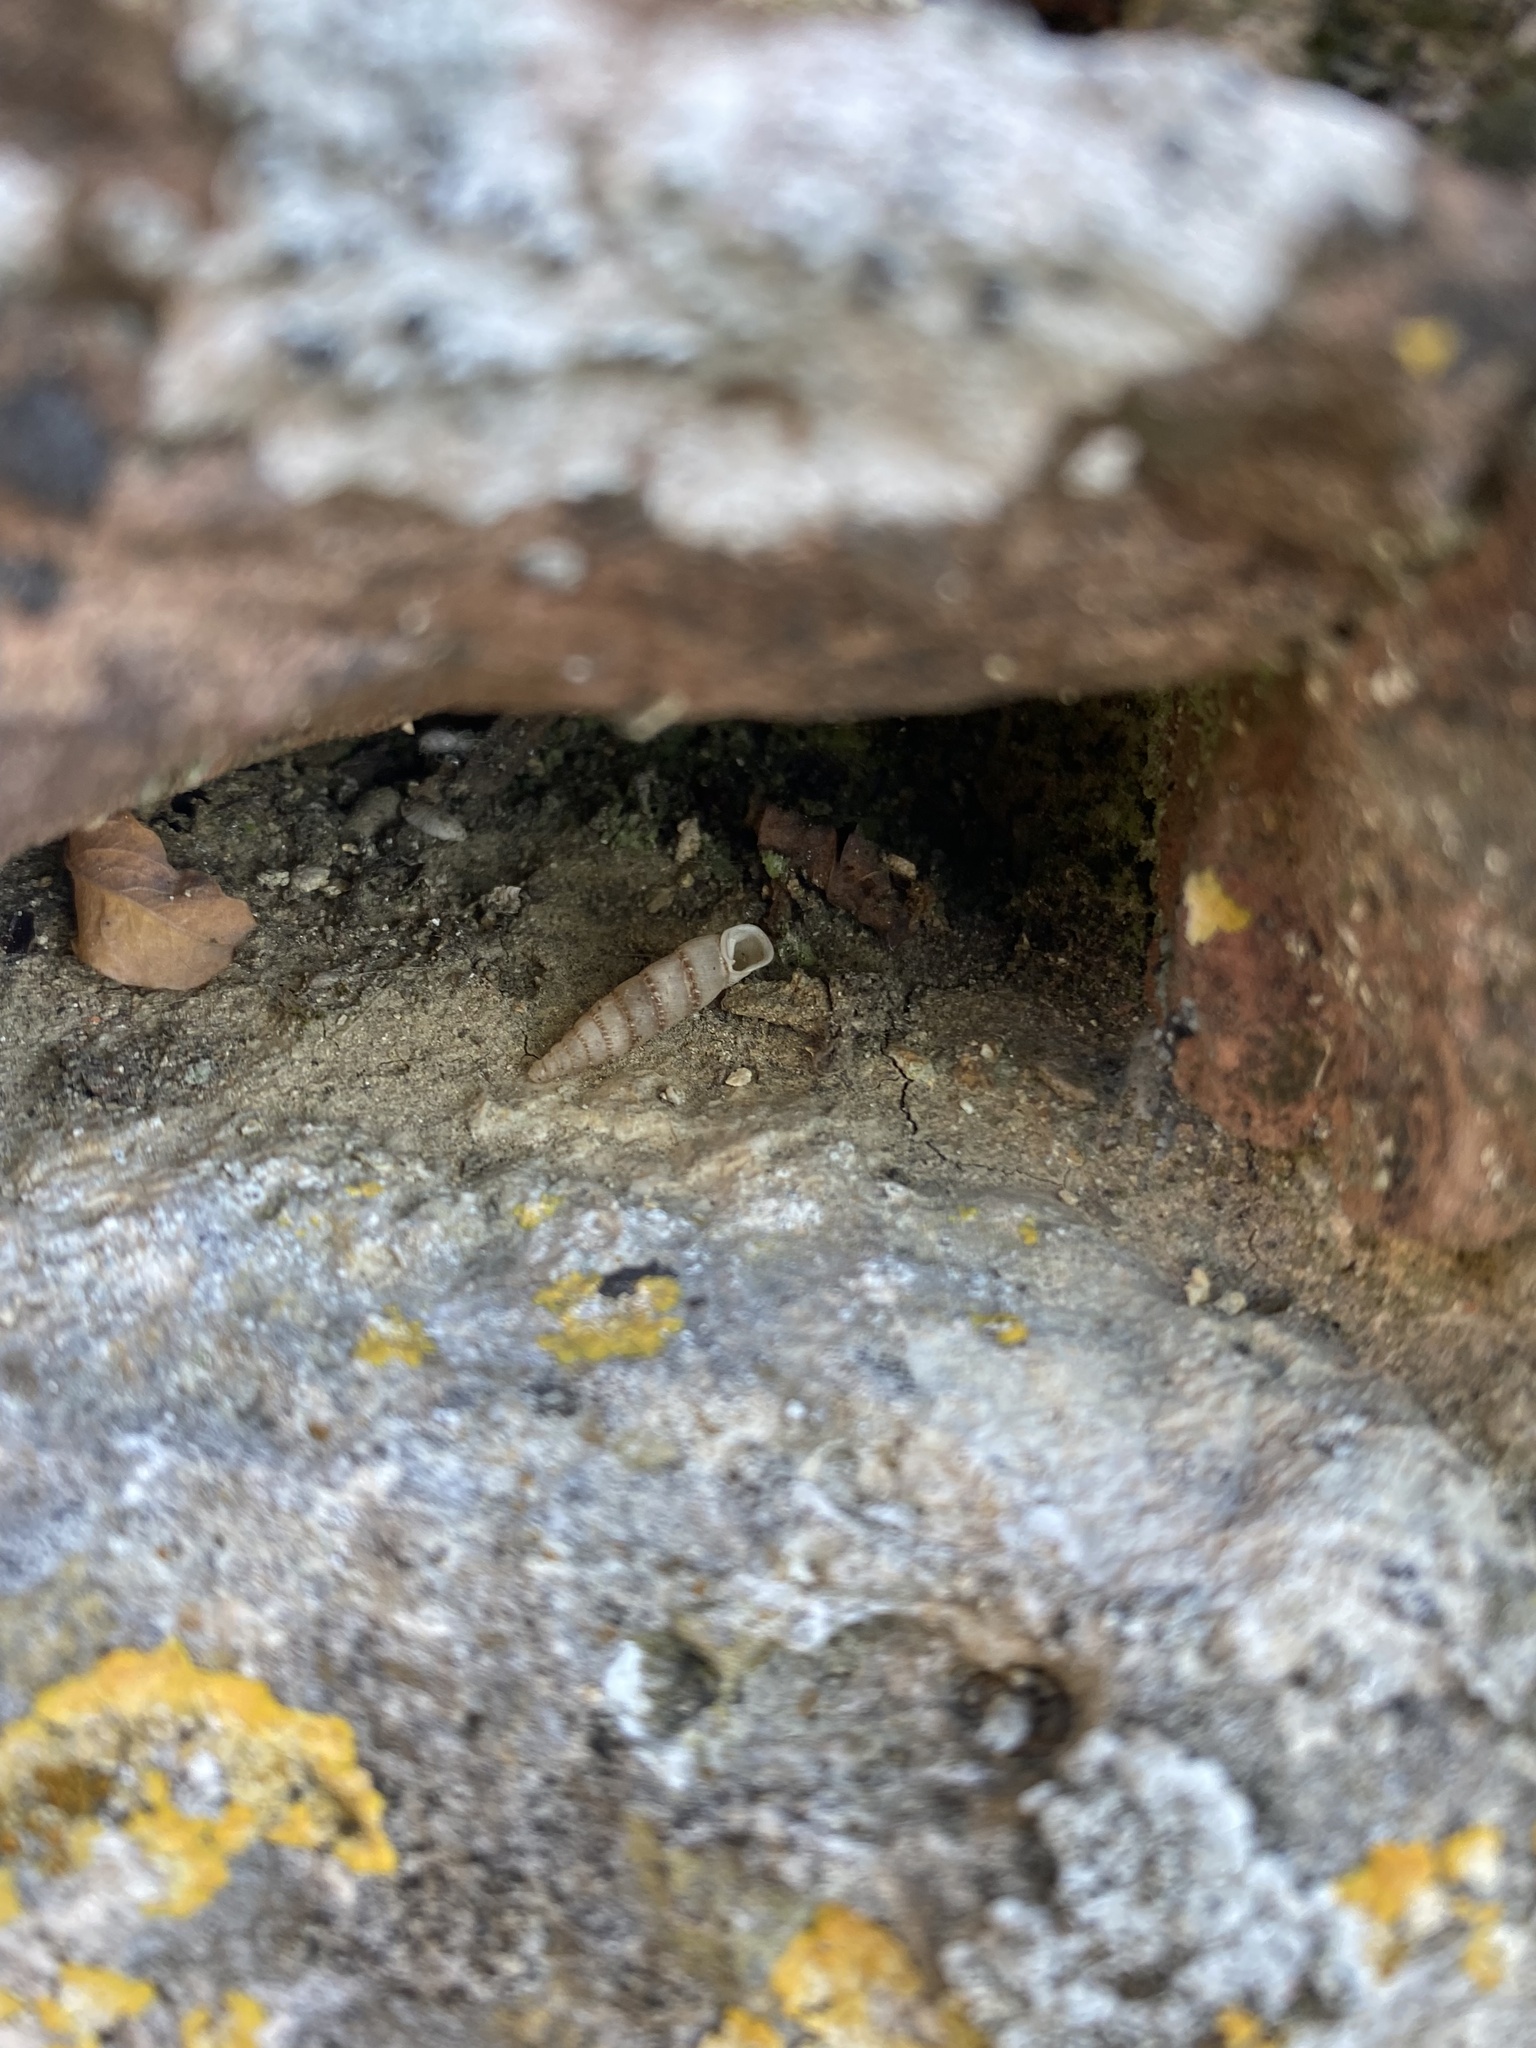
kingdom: Animalia
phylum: Mollusca
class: Gastropoda
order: Stylommatophora
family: Clausiliidae
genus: Papillifera
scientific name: Papillifera papillaris
